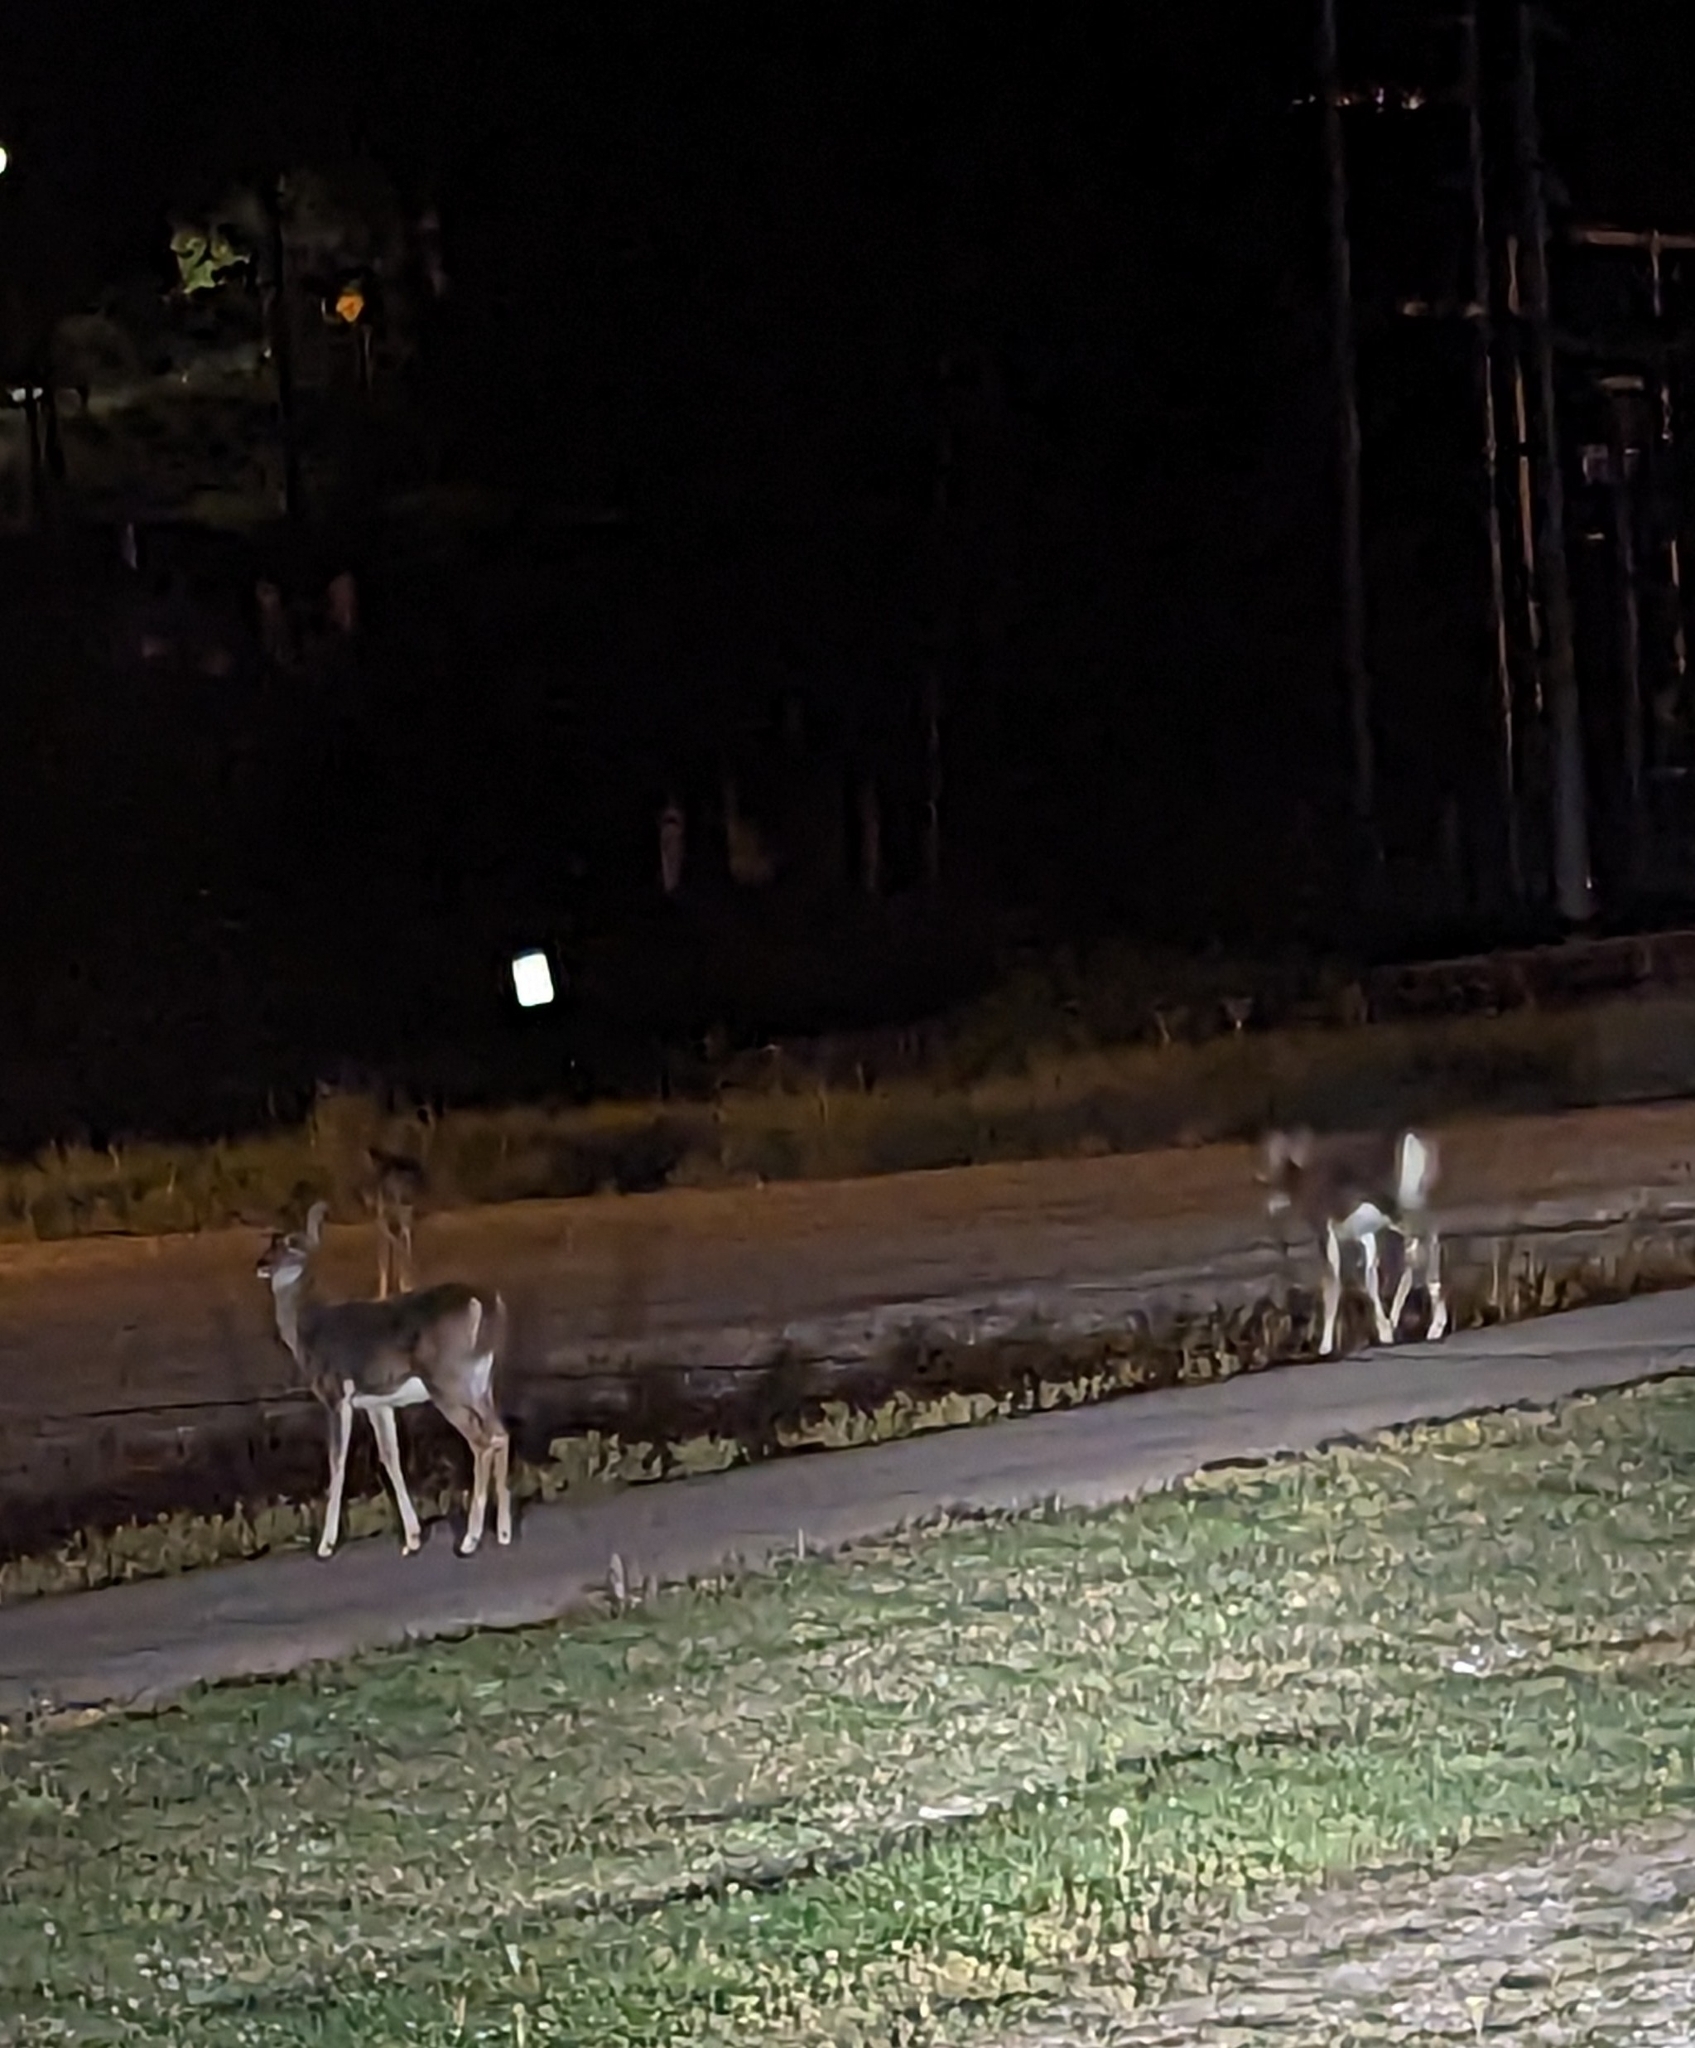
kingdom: Animalia
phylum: Chordata
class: Mammalia
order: Artiodactyla
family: Cervidae
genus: Odocoileus
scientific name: Odocoileus virginianus
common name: White-tailed deer
